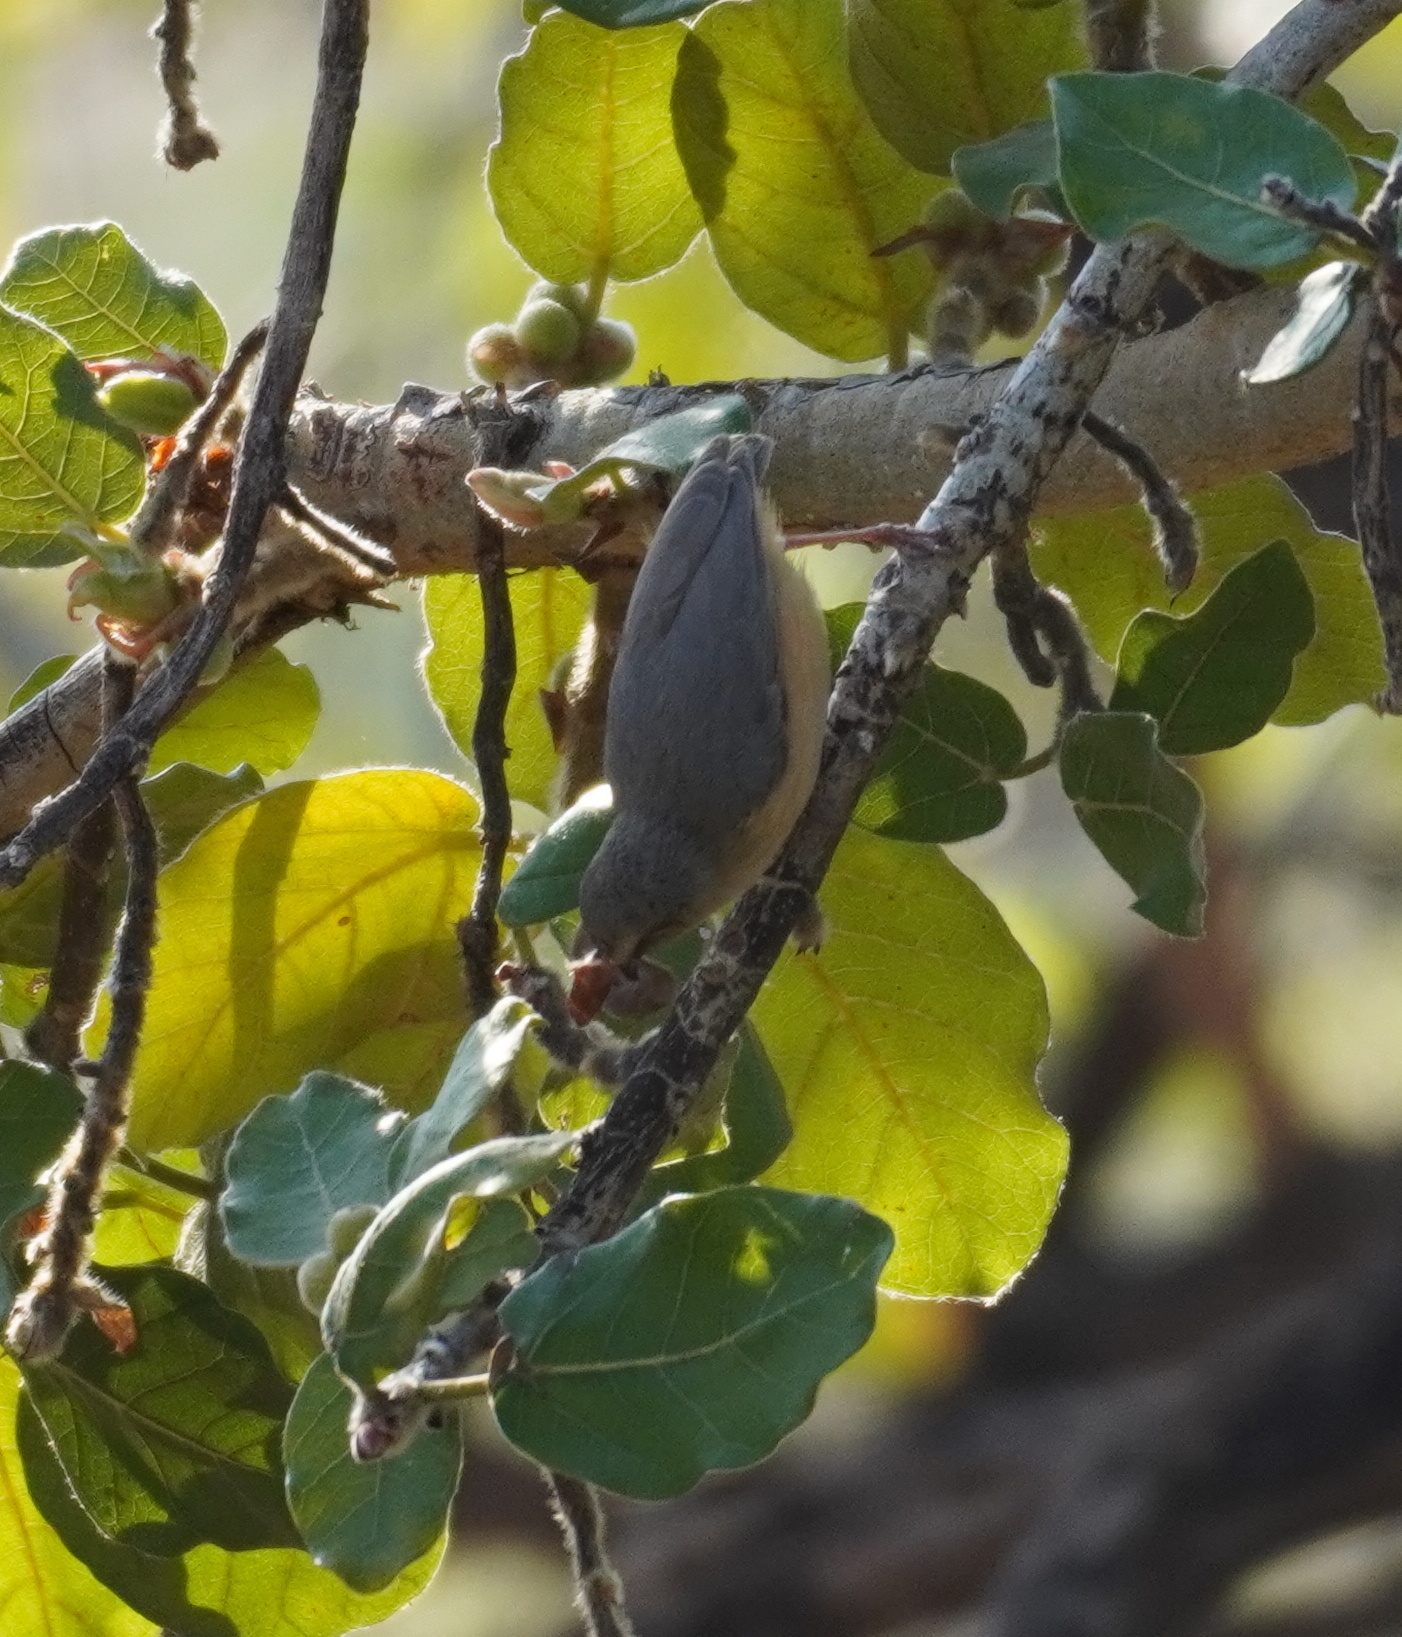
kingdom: Animalia
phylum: Chordata
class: Aves
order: Passeriformes
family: Macrosphenidae
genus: Sylvietta
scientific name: Sylvietta rufescens
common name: Long-billed crombec
